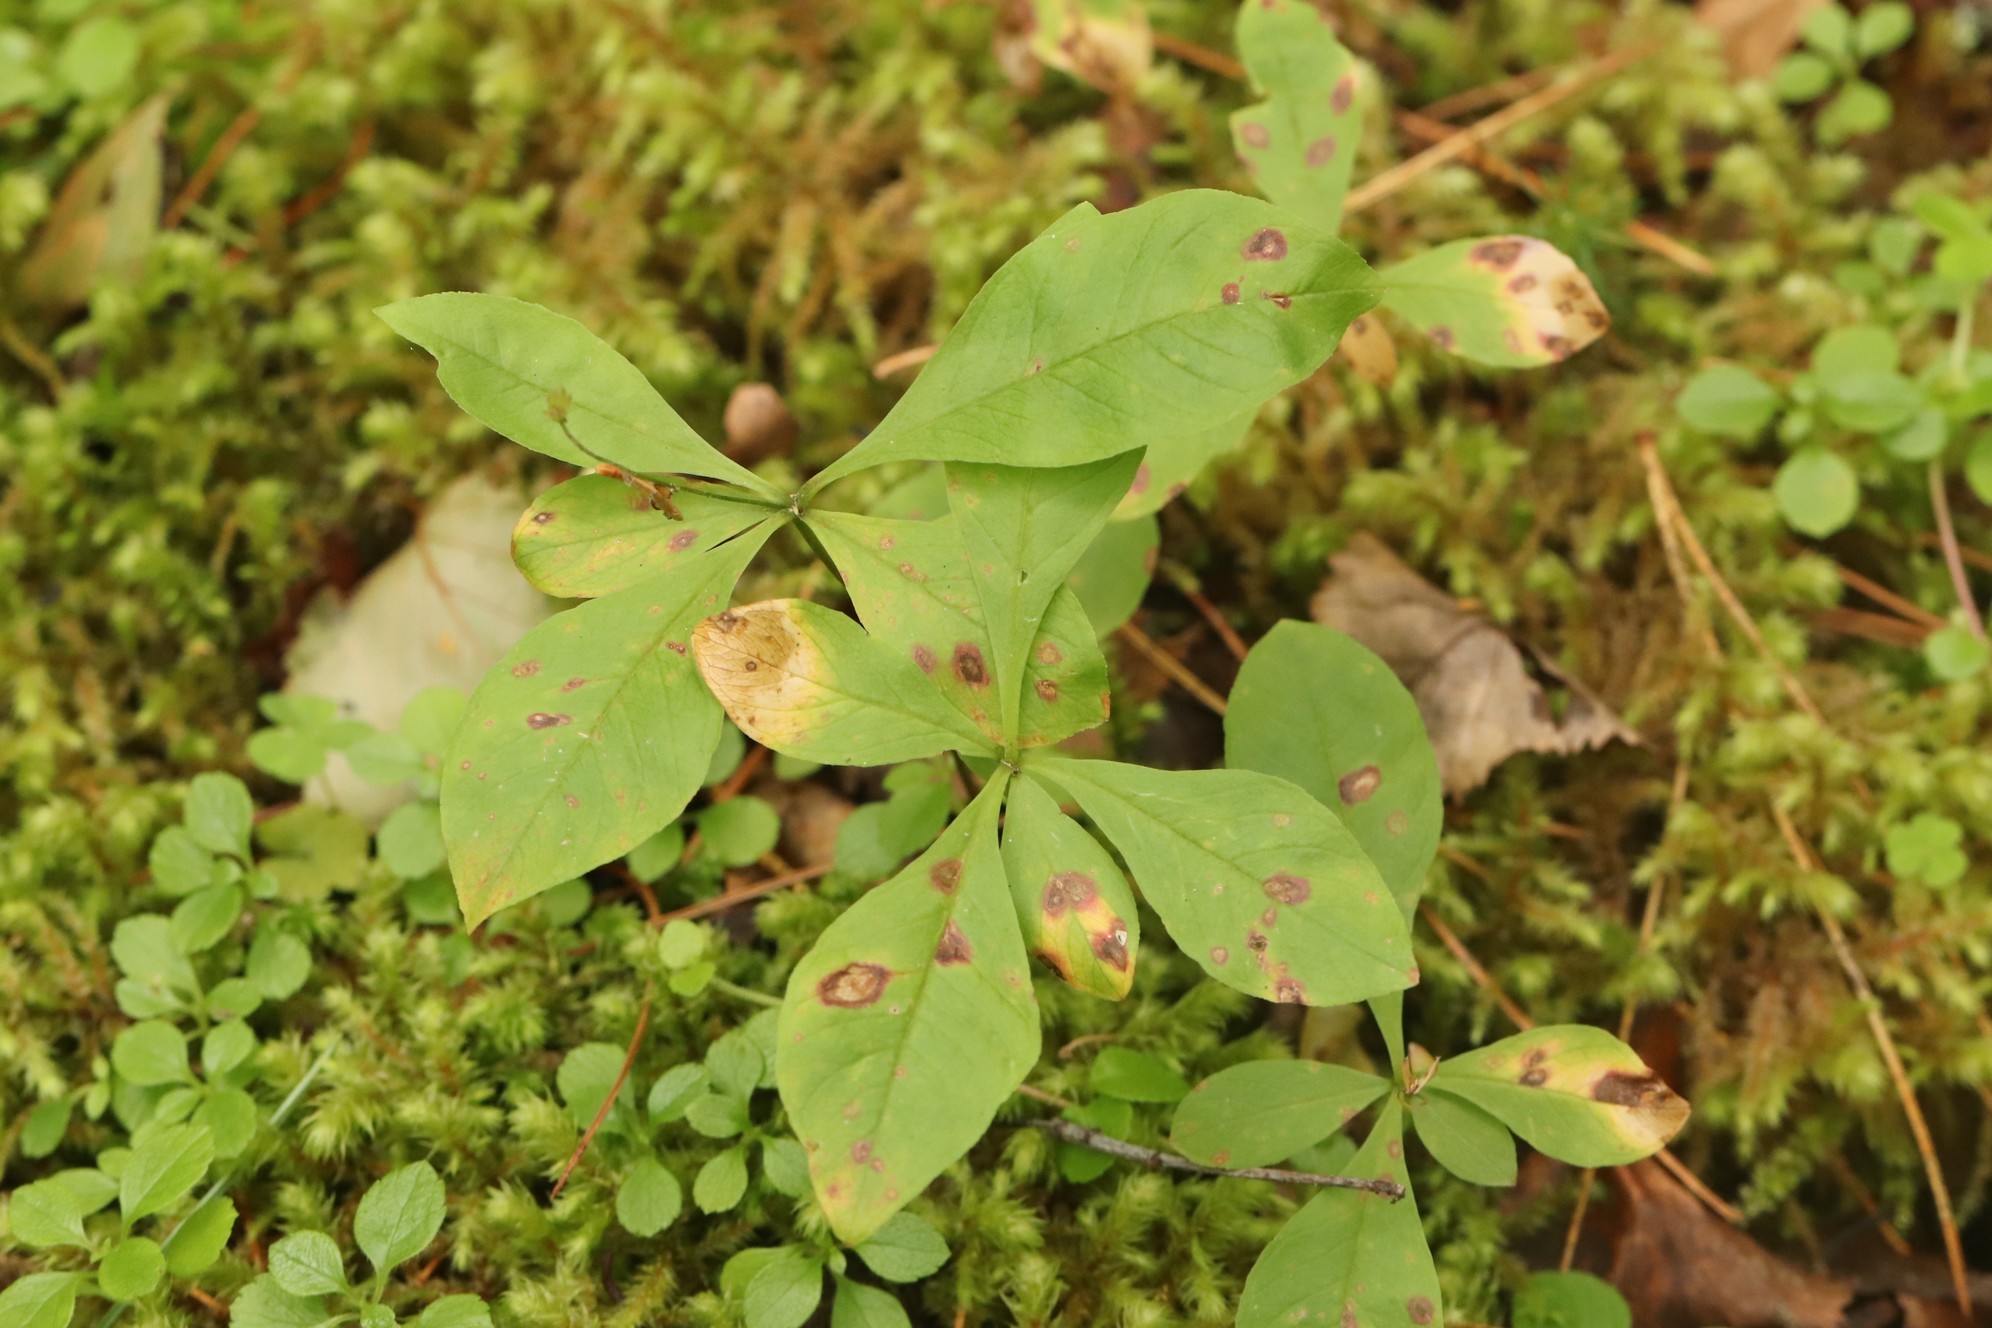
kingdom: Plantae
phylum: Tracheophyta
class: Magnoliopsida
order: Ericales
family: Primulaceae
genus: Lysimachia
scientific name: Lysimachia europaea
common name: Arctic starflower
